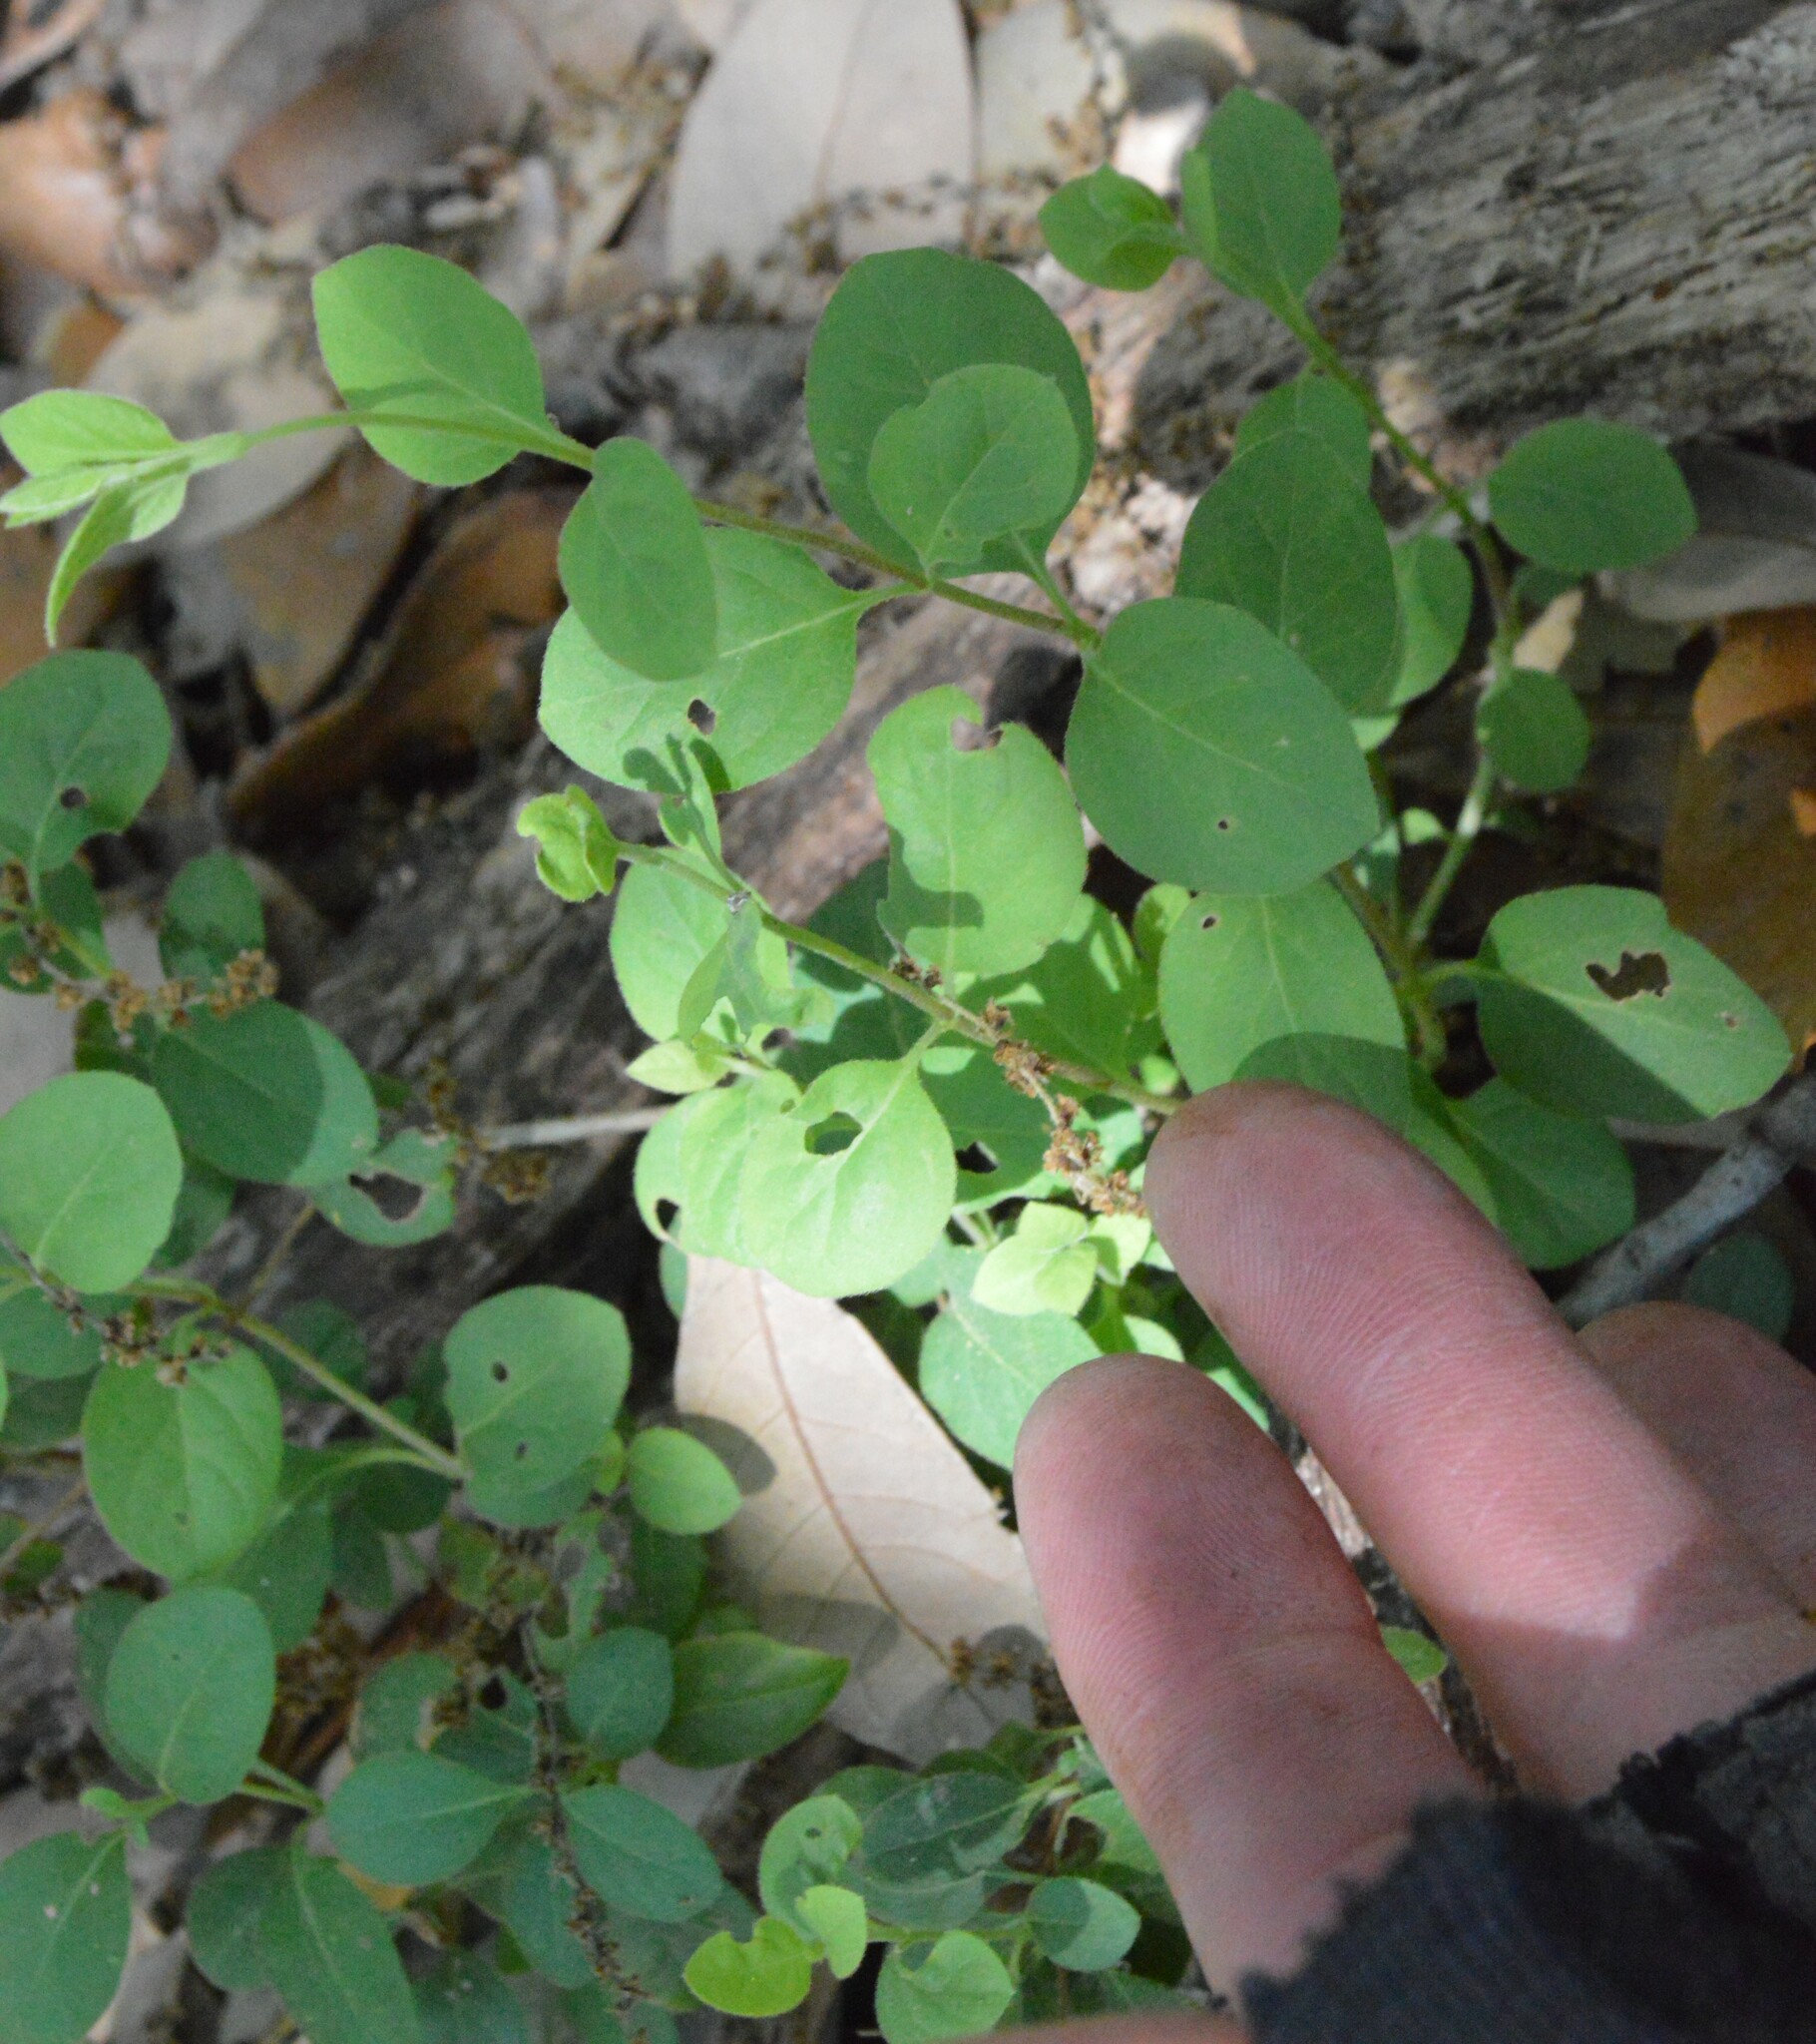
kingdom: Plantae
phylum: Tracheophyta
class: Magnoliopsida
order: Dipsacales
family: Caprifoliaceae
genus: Lonicera
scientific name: Lonicera japonica
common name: Japanese honeysuckle
